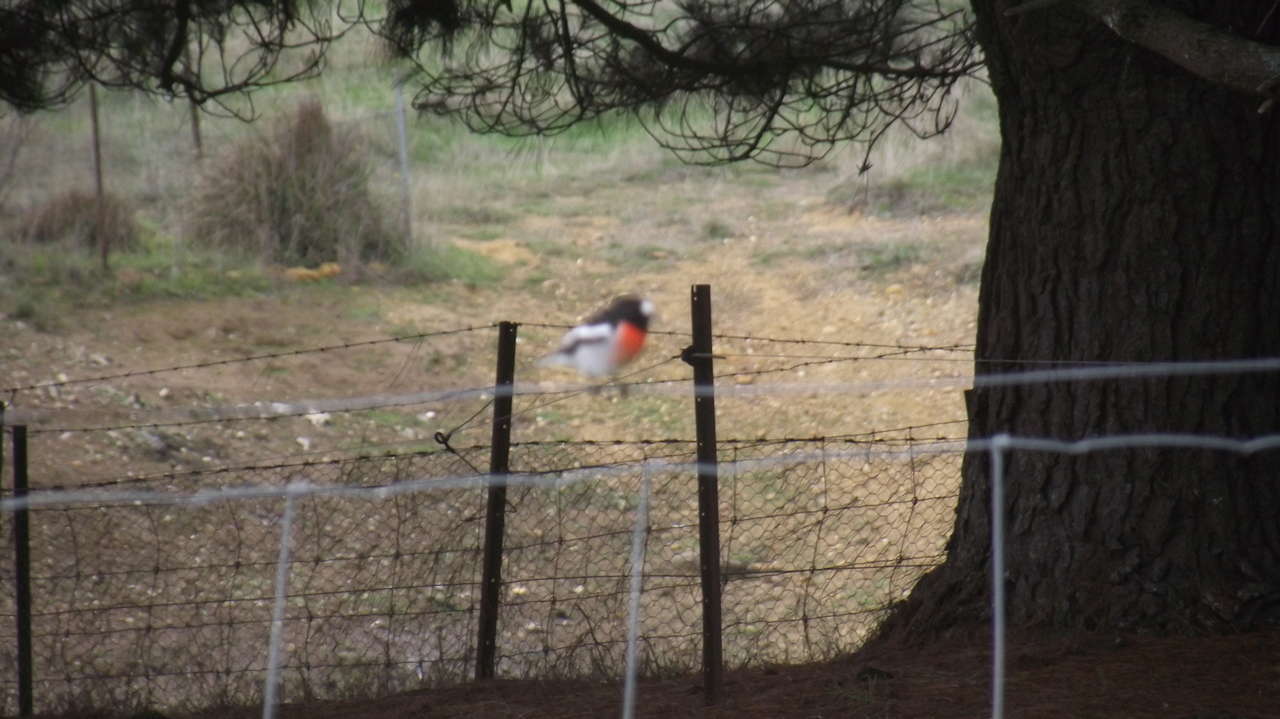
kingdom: Animalia
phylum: Chordata
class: Aves
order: Passeriformes
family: Petroicidae
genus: Petroica
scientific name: Petroica boodang
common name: Scarlet robin
